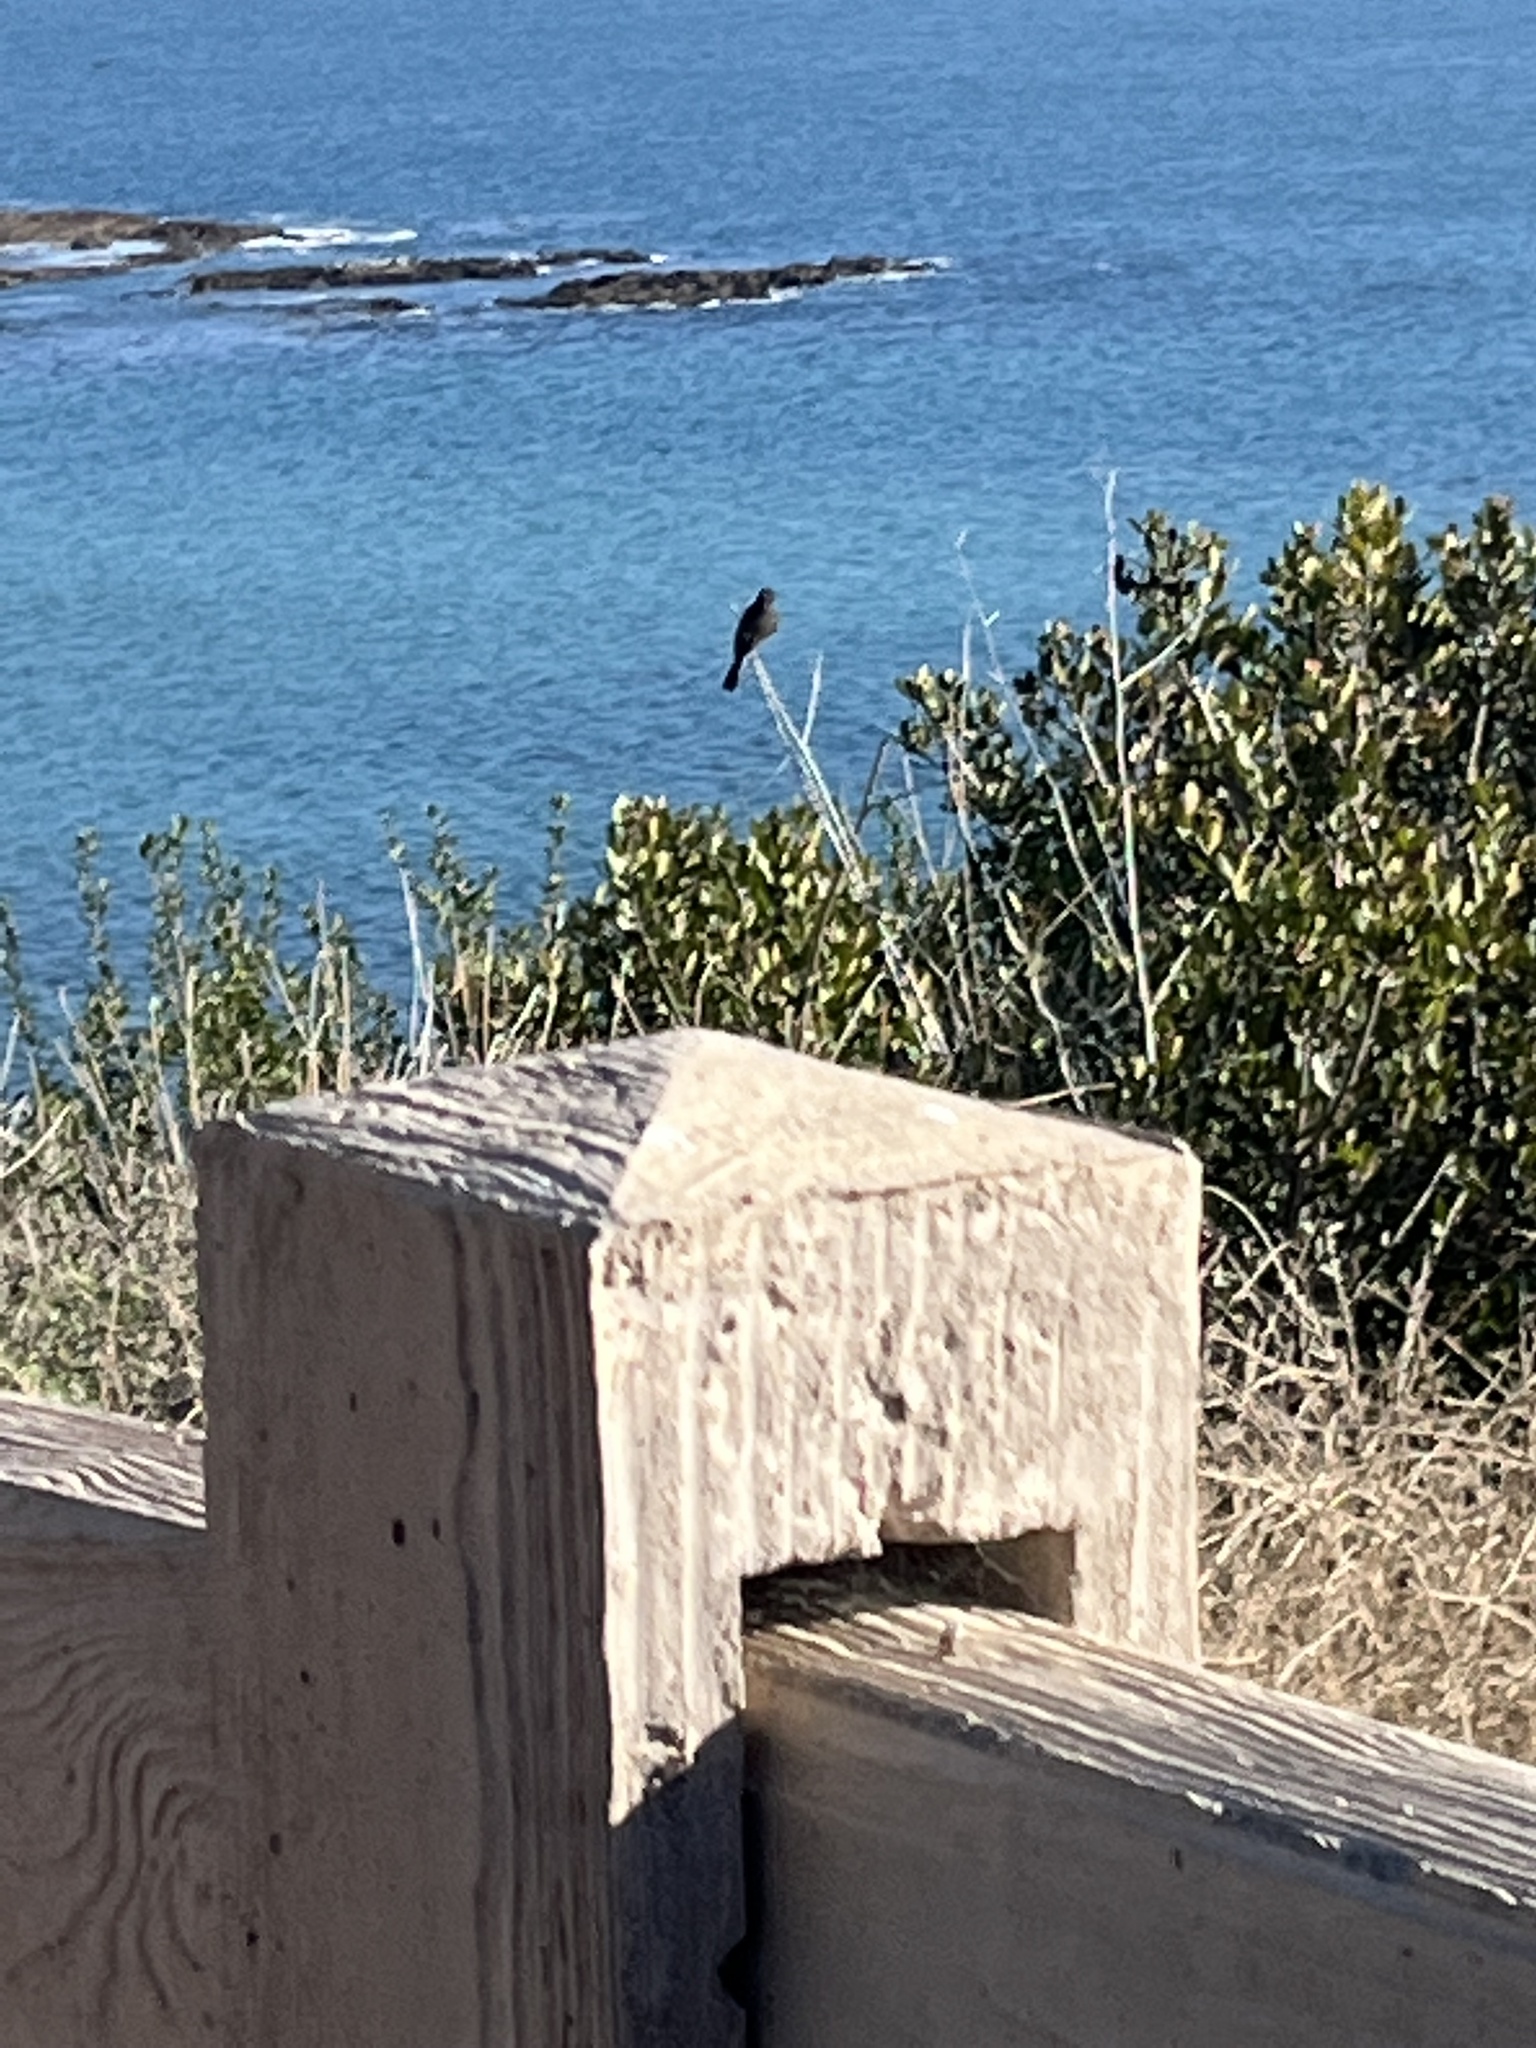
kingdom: Animalia
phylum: Chordata
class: Aves
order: Passeriformes
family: Tyrannidae
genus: Sayornis
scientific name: Sayornis nigricans
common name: Black phoebe
